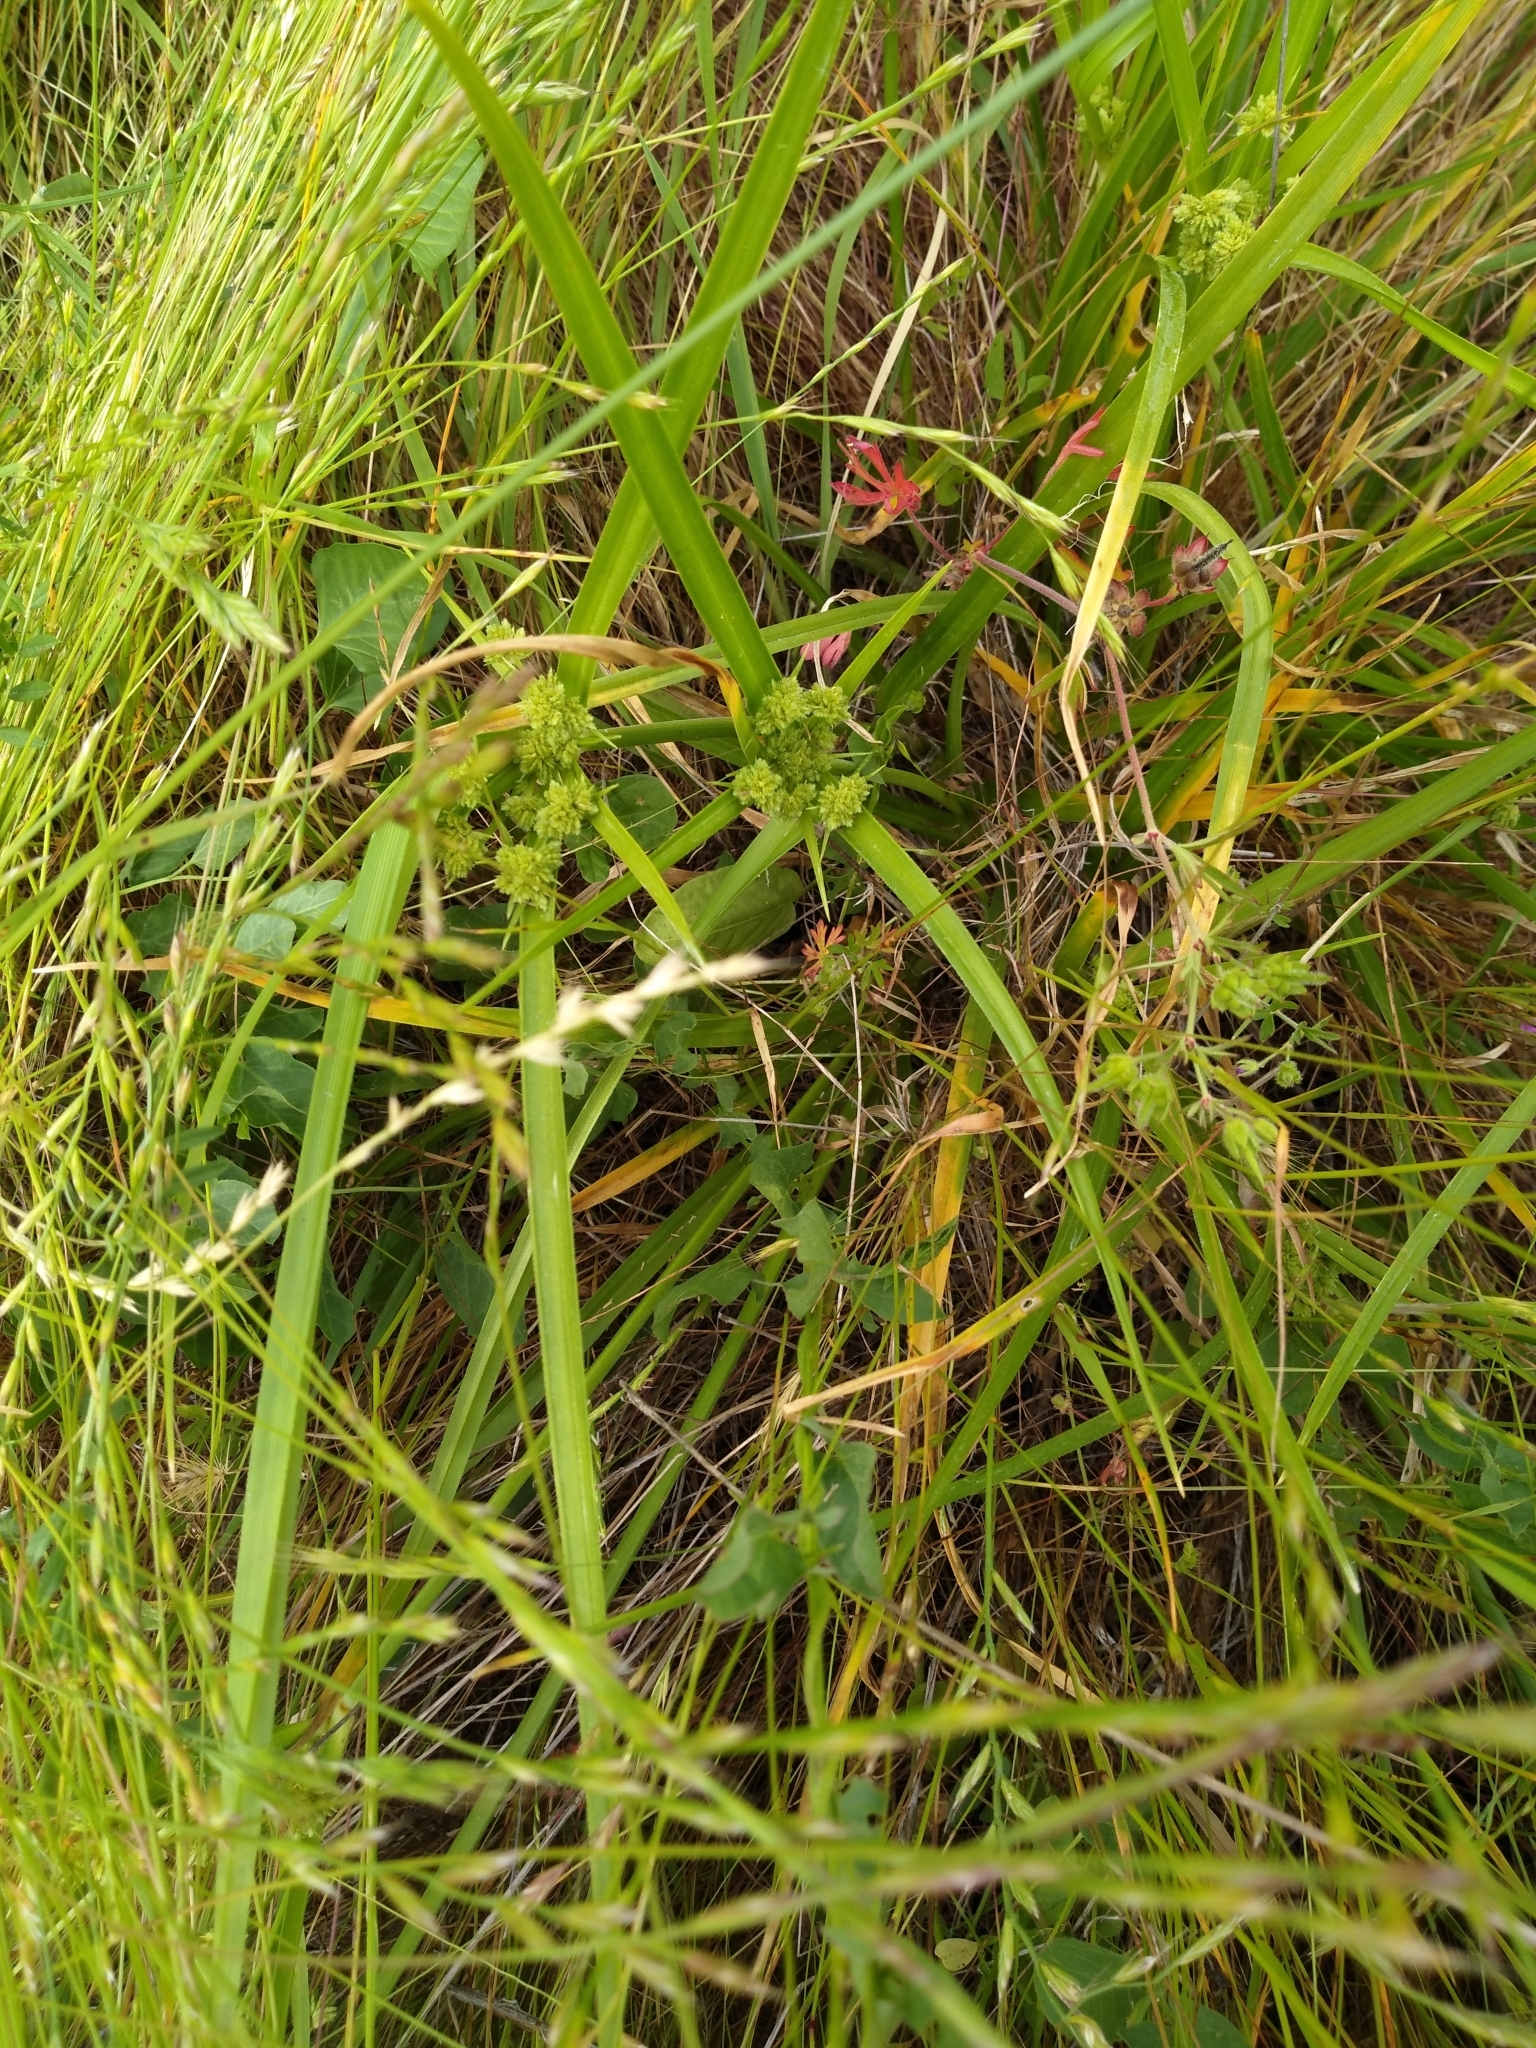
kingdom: Plantae
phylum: Tracheophyta
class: Liliopsida
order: Poales
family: Cyperaceae
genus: Cyperus
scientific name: Cyperus eragrostis
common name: Tall flatsedge
